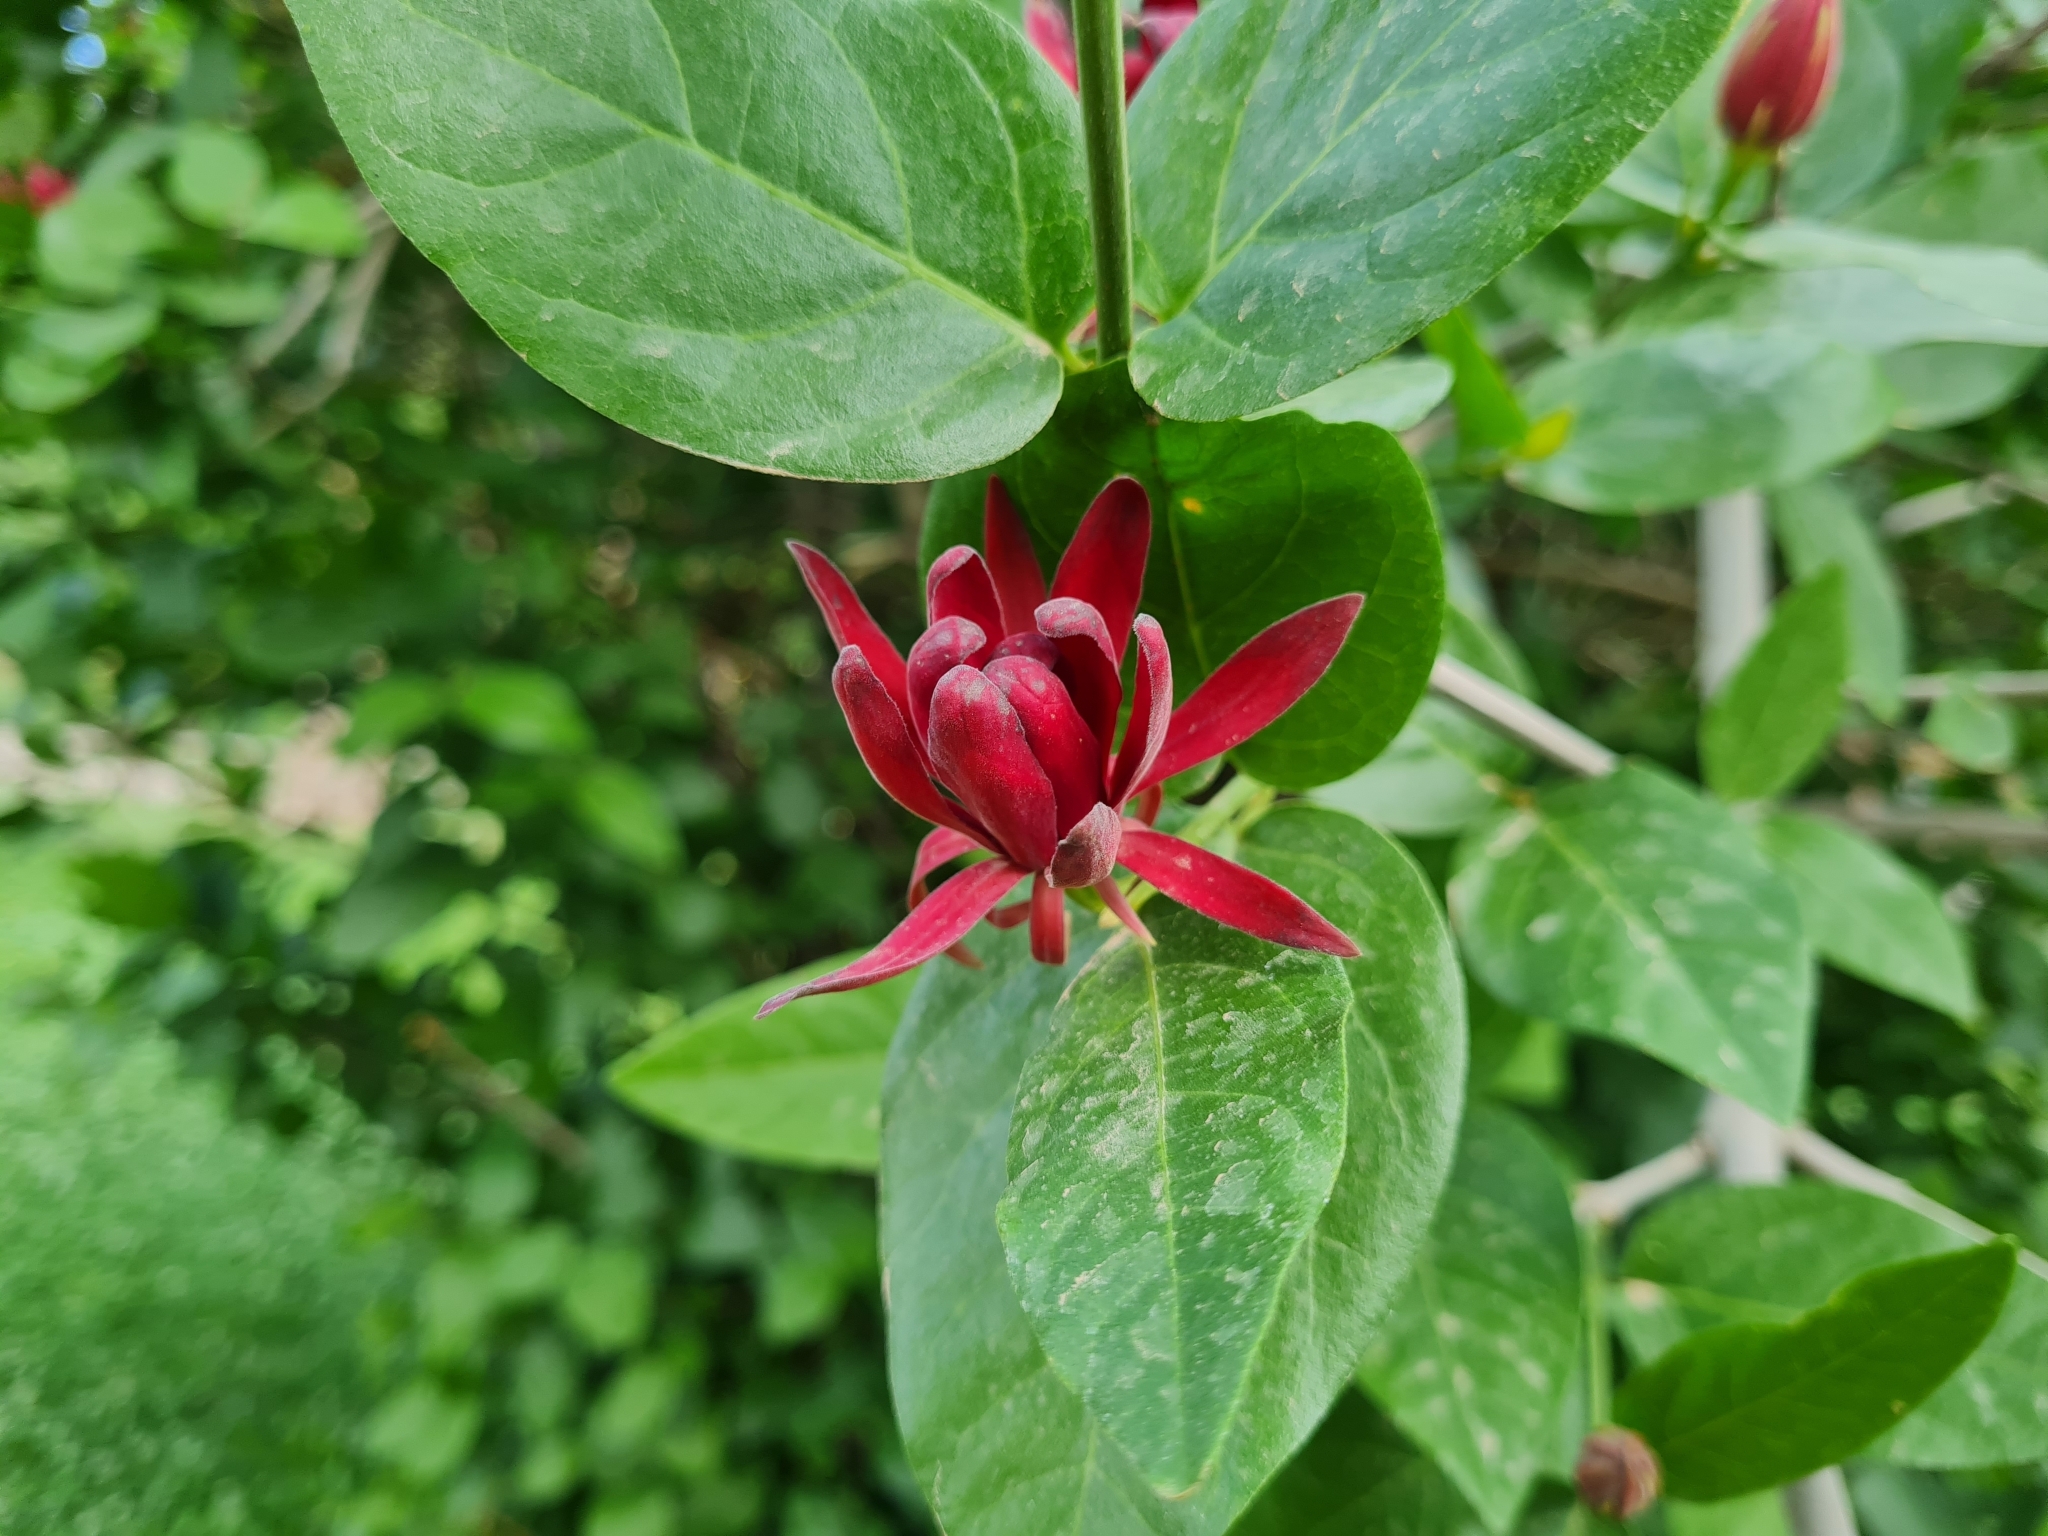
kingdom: Plantae
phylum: Tracheophyta
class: Magnoliopsida
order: Laurales
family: Calycanthaceae
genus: Calycanthus
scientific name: Calycanthus occidentalis
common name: California spicebush
